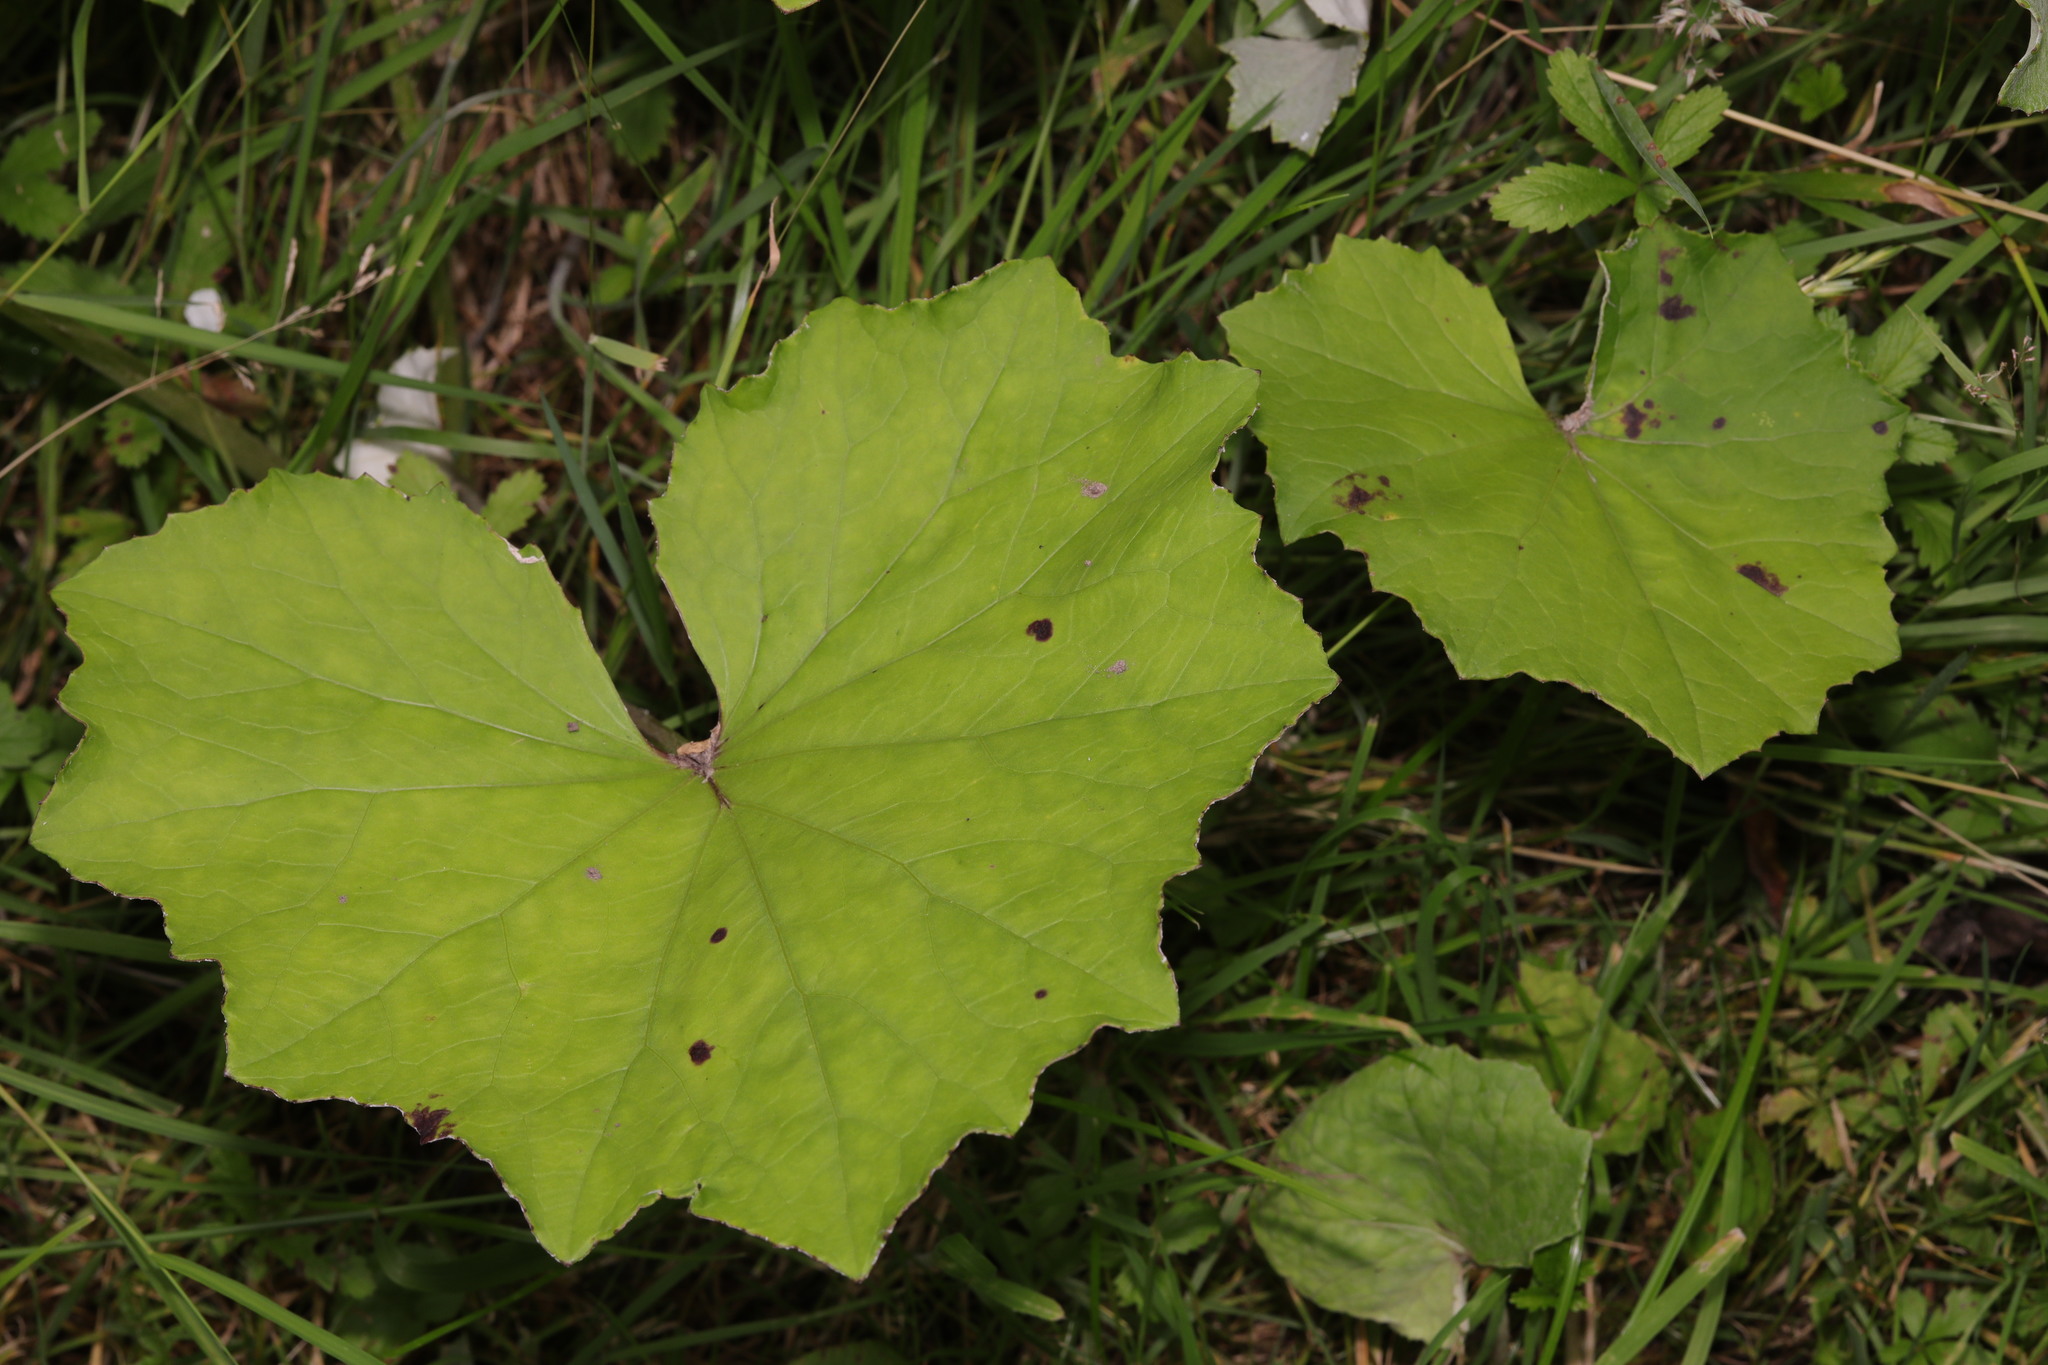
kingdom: Plantae
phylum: Tracheophyta
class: Magnoliopsida
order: Asterales
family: Asteraceae
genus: Tussilago
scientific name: Tussilago farfara
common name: Coltsfoot
